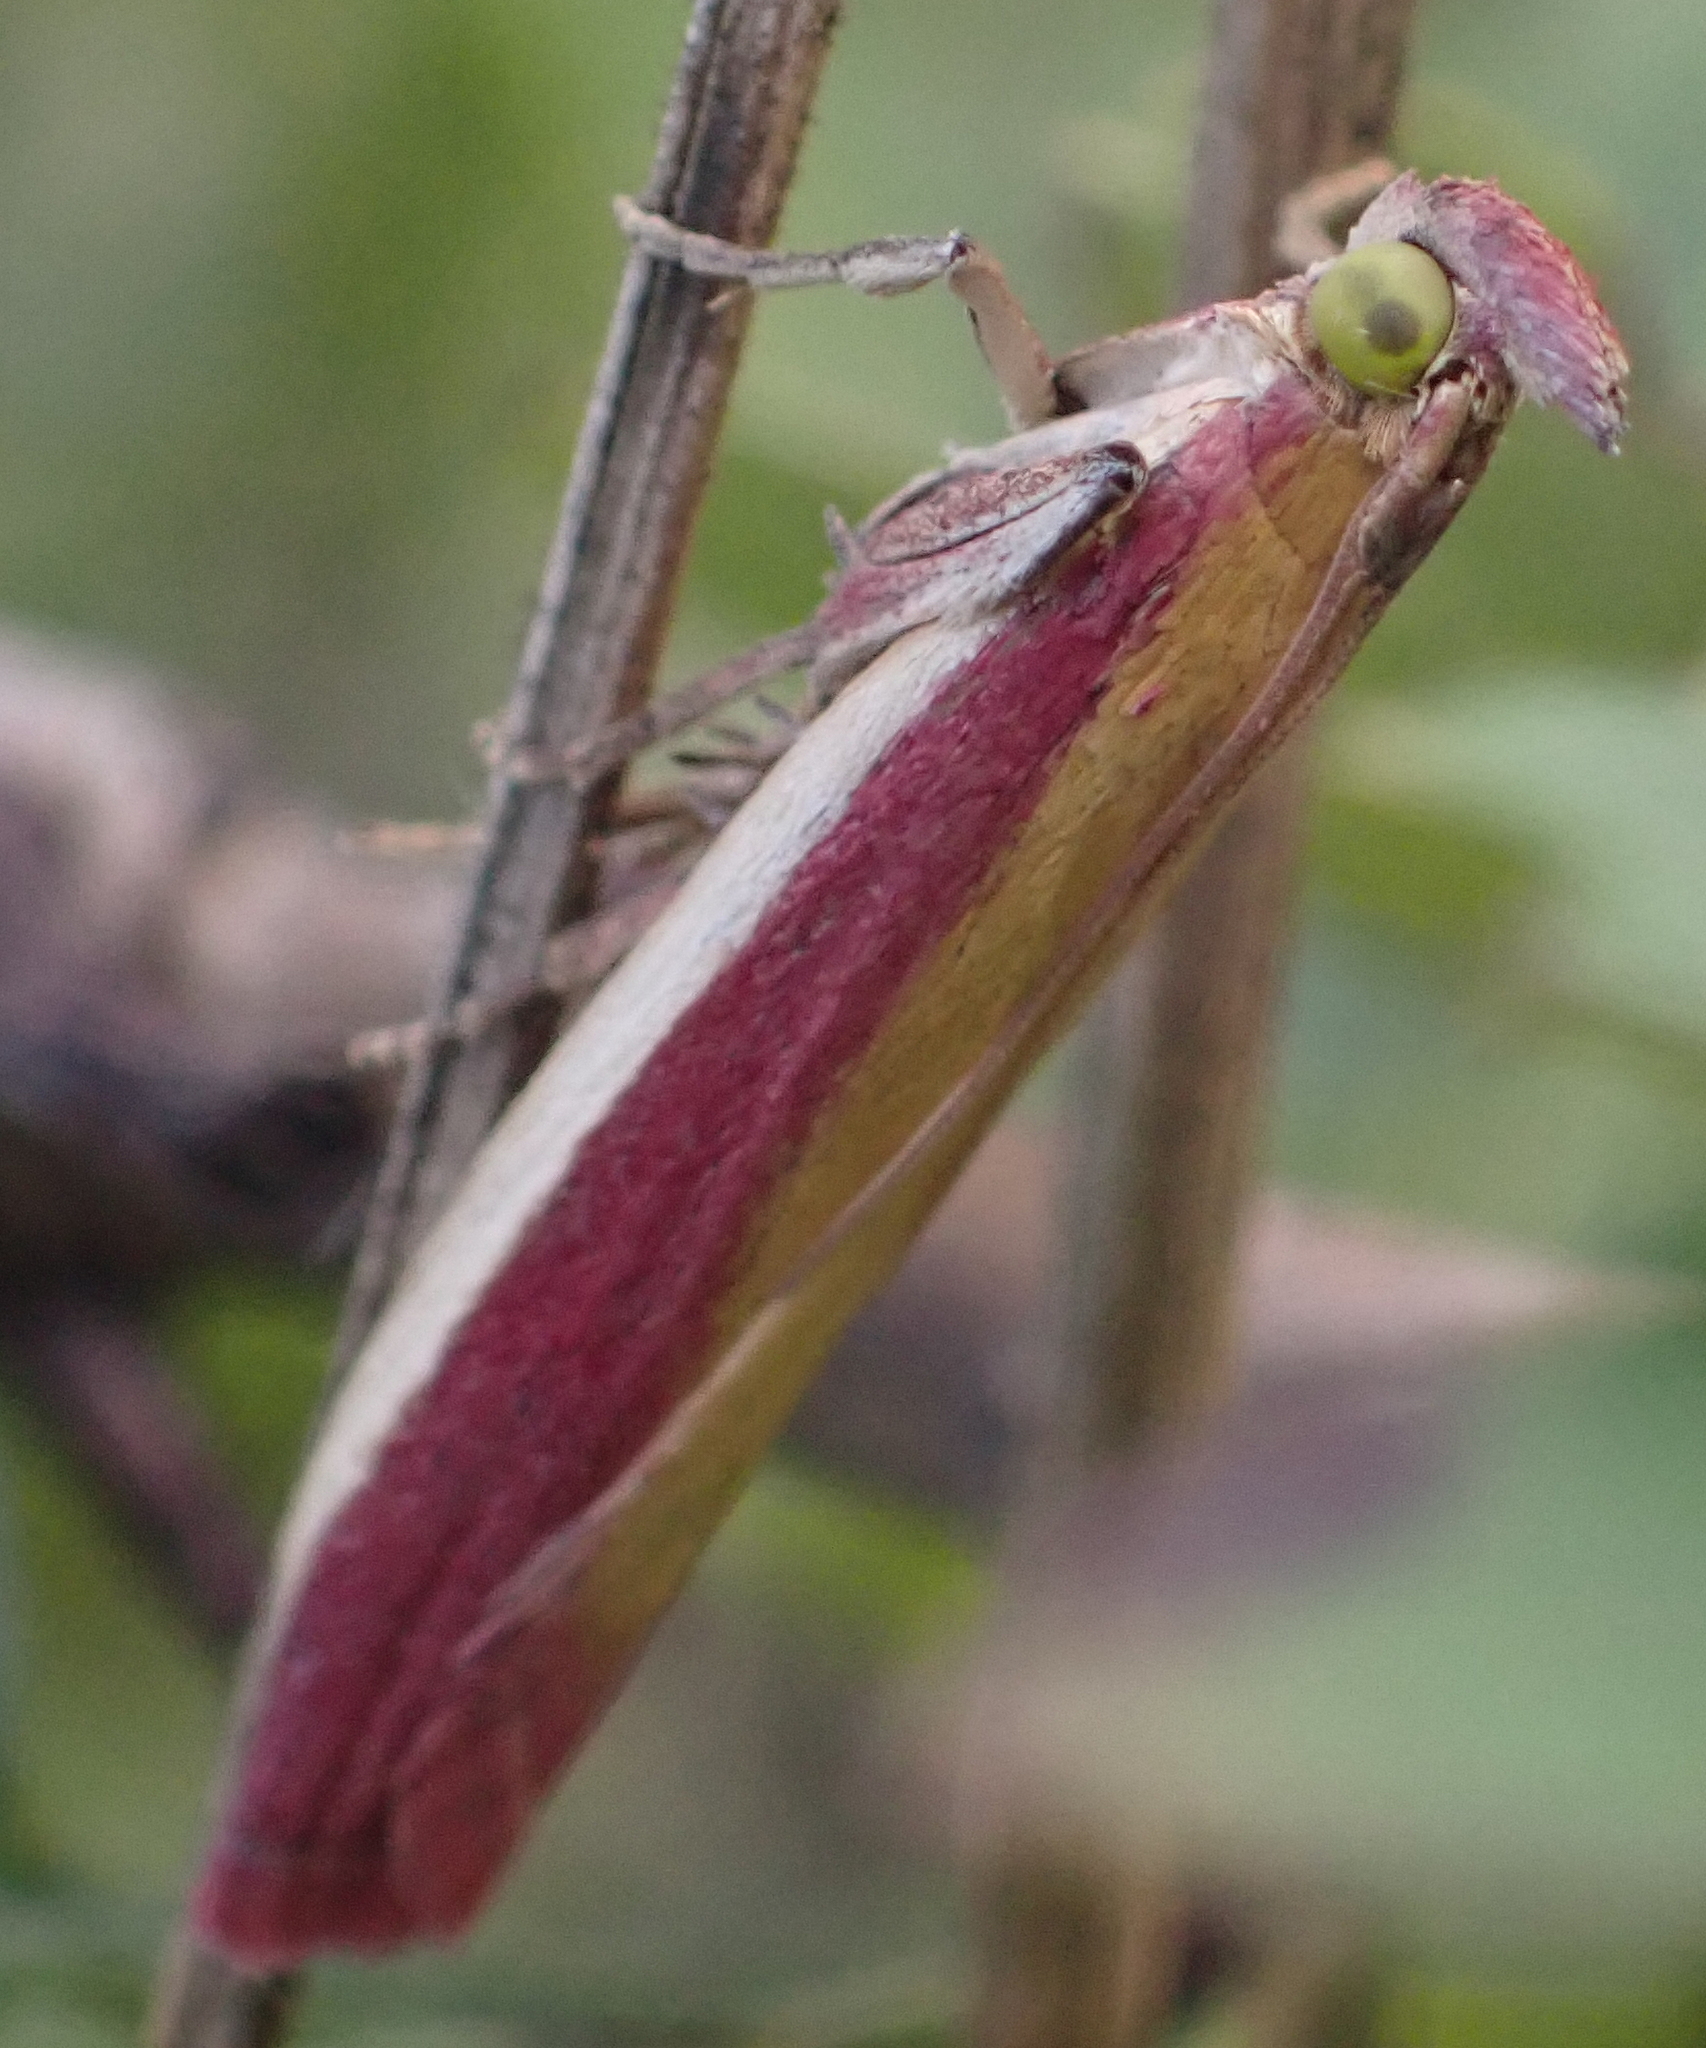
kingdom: Animalia
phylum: Arthropoda
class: Insecta
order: Lepidoptera
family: Pyralidae
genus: Oncocera
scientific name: Oncocera semirubella
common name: Rosy-striped knot-horn
